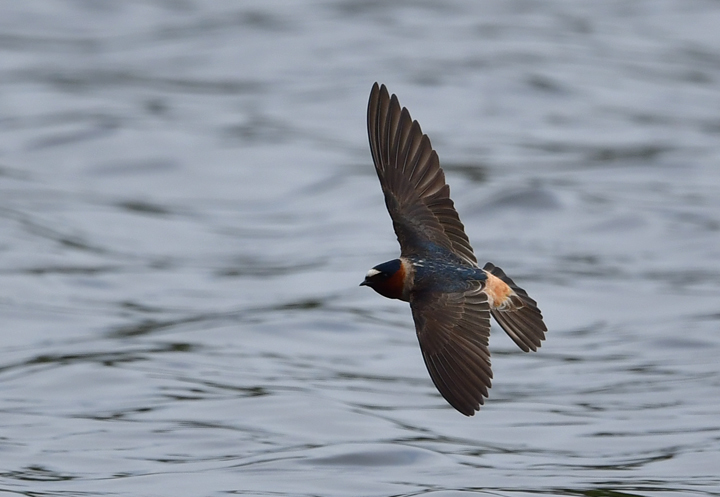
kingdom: Animalia
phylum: Chordata
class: Aves
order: Passeriformes
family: Hirundinidae
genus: Petrochelidon
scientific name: Petrochelidon pyrrhonota
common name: American cliff swallow
